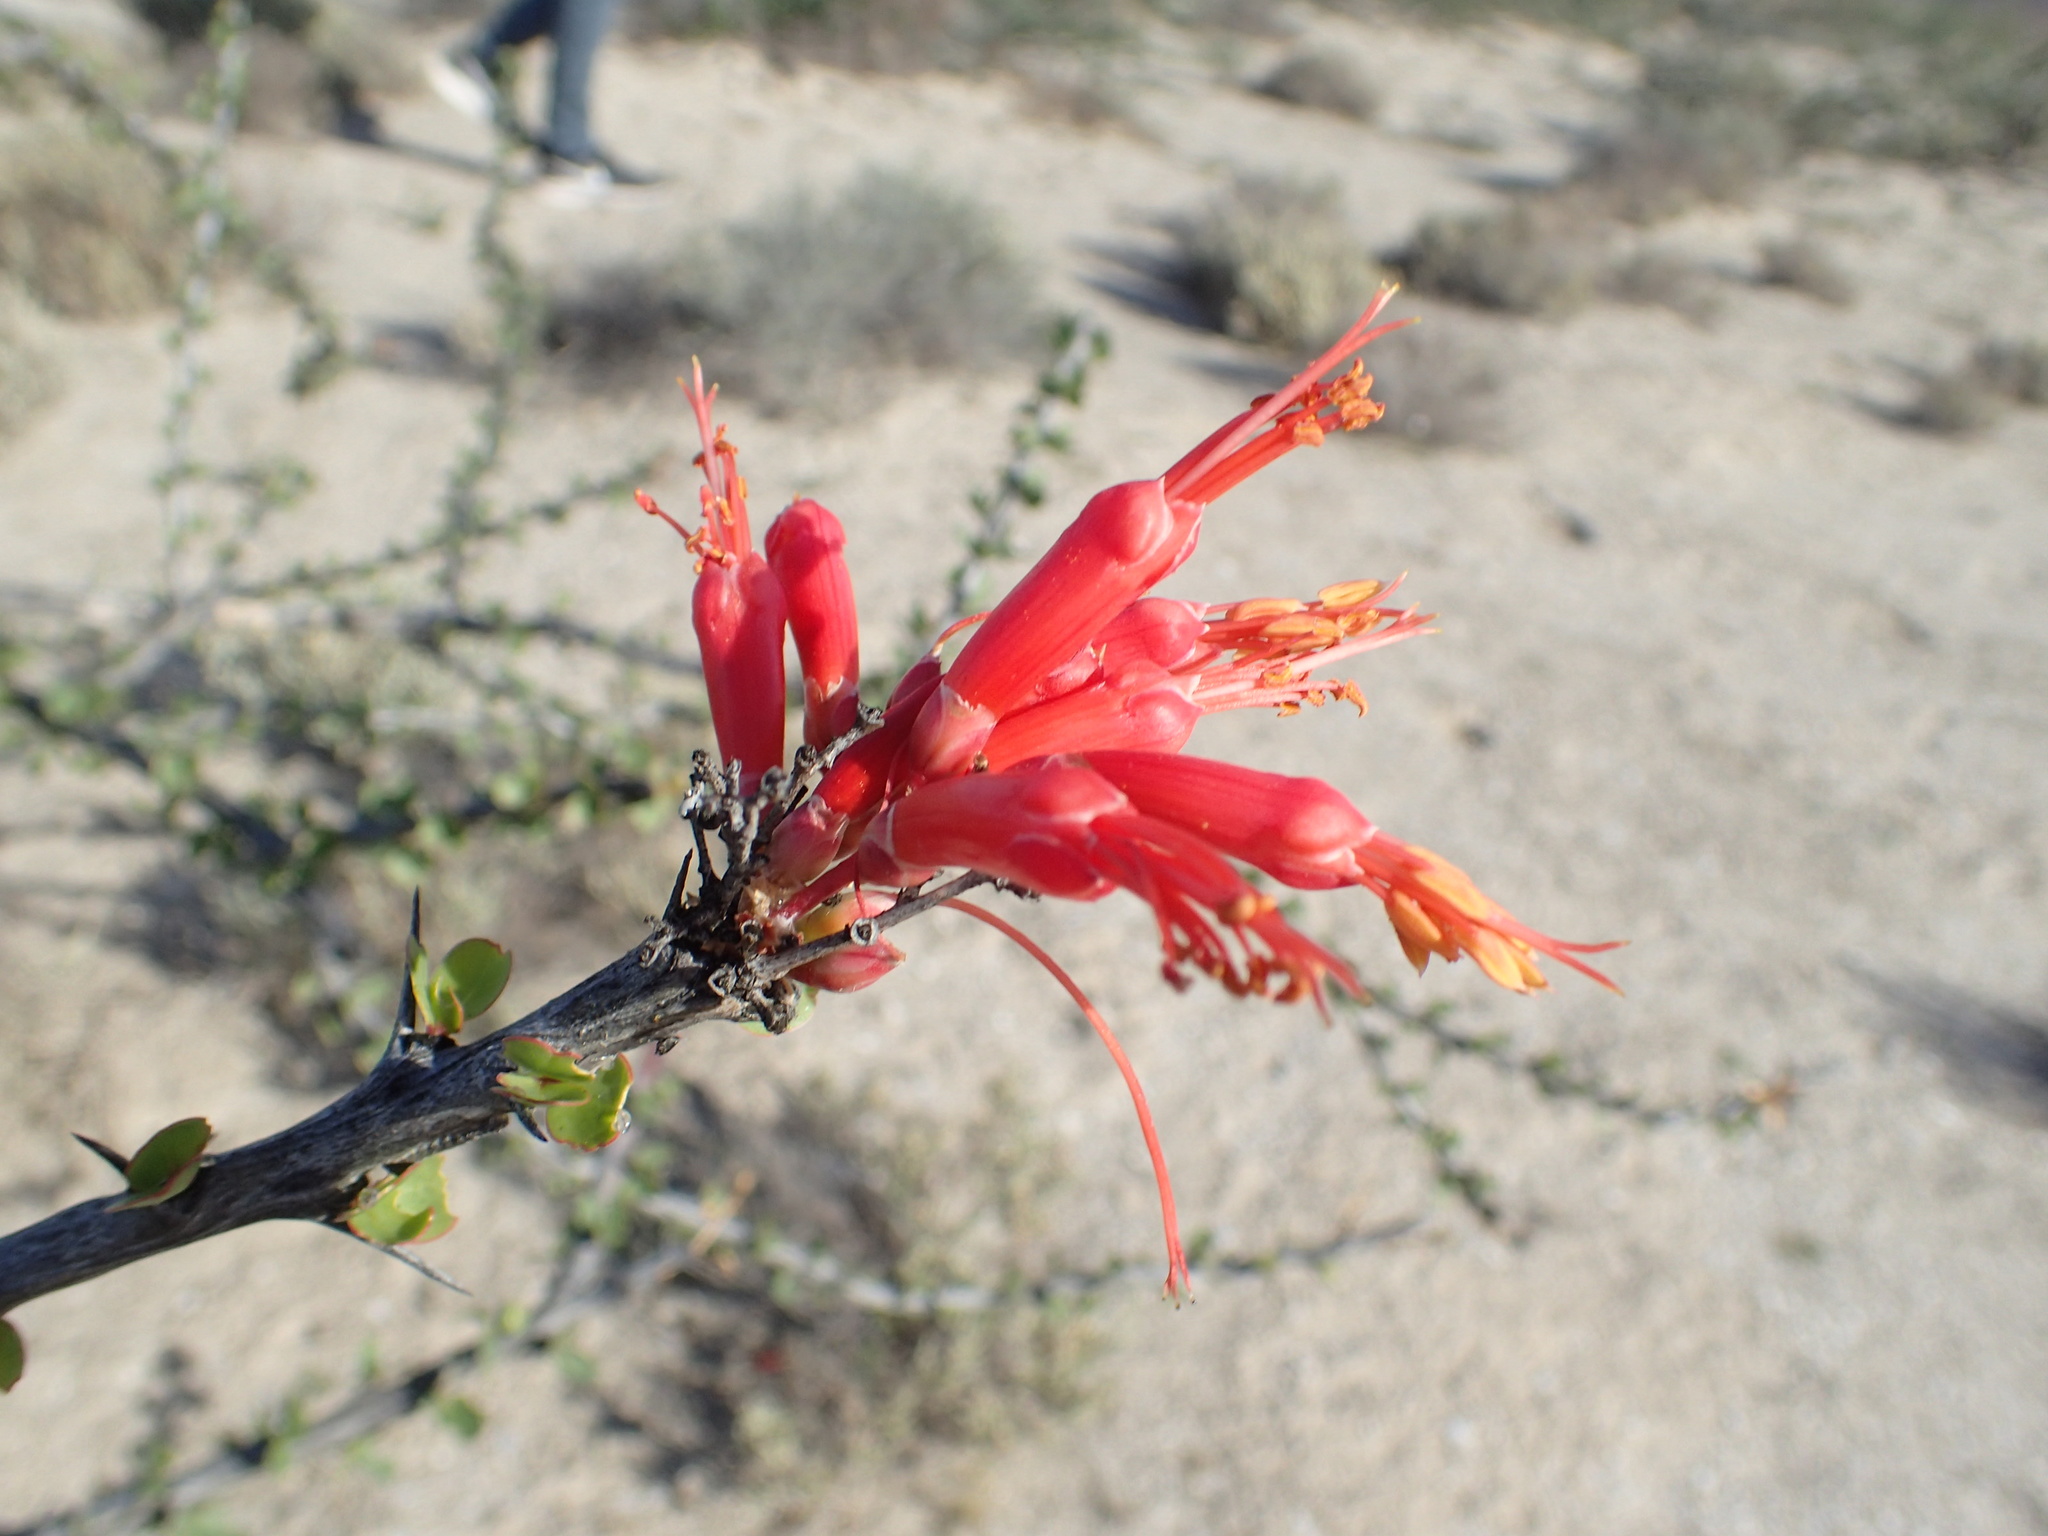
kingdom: Plantae
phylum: Tracheophyta
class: Magnoliopsida
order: Ericales
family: Fouquieriaceae
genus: Fouquieria
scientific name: Fouquieria diguetii
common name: Adam's tree
